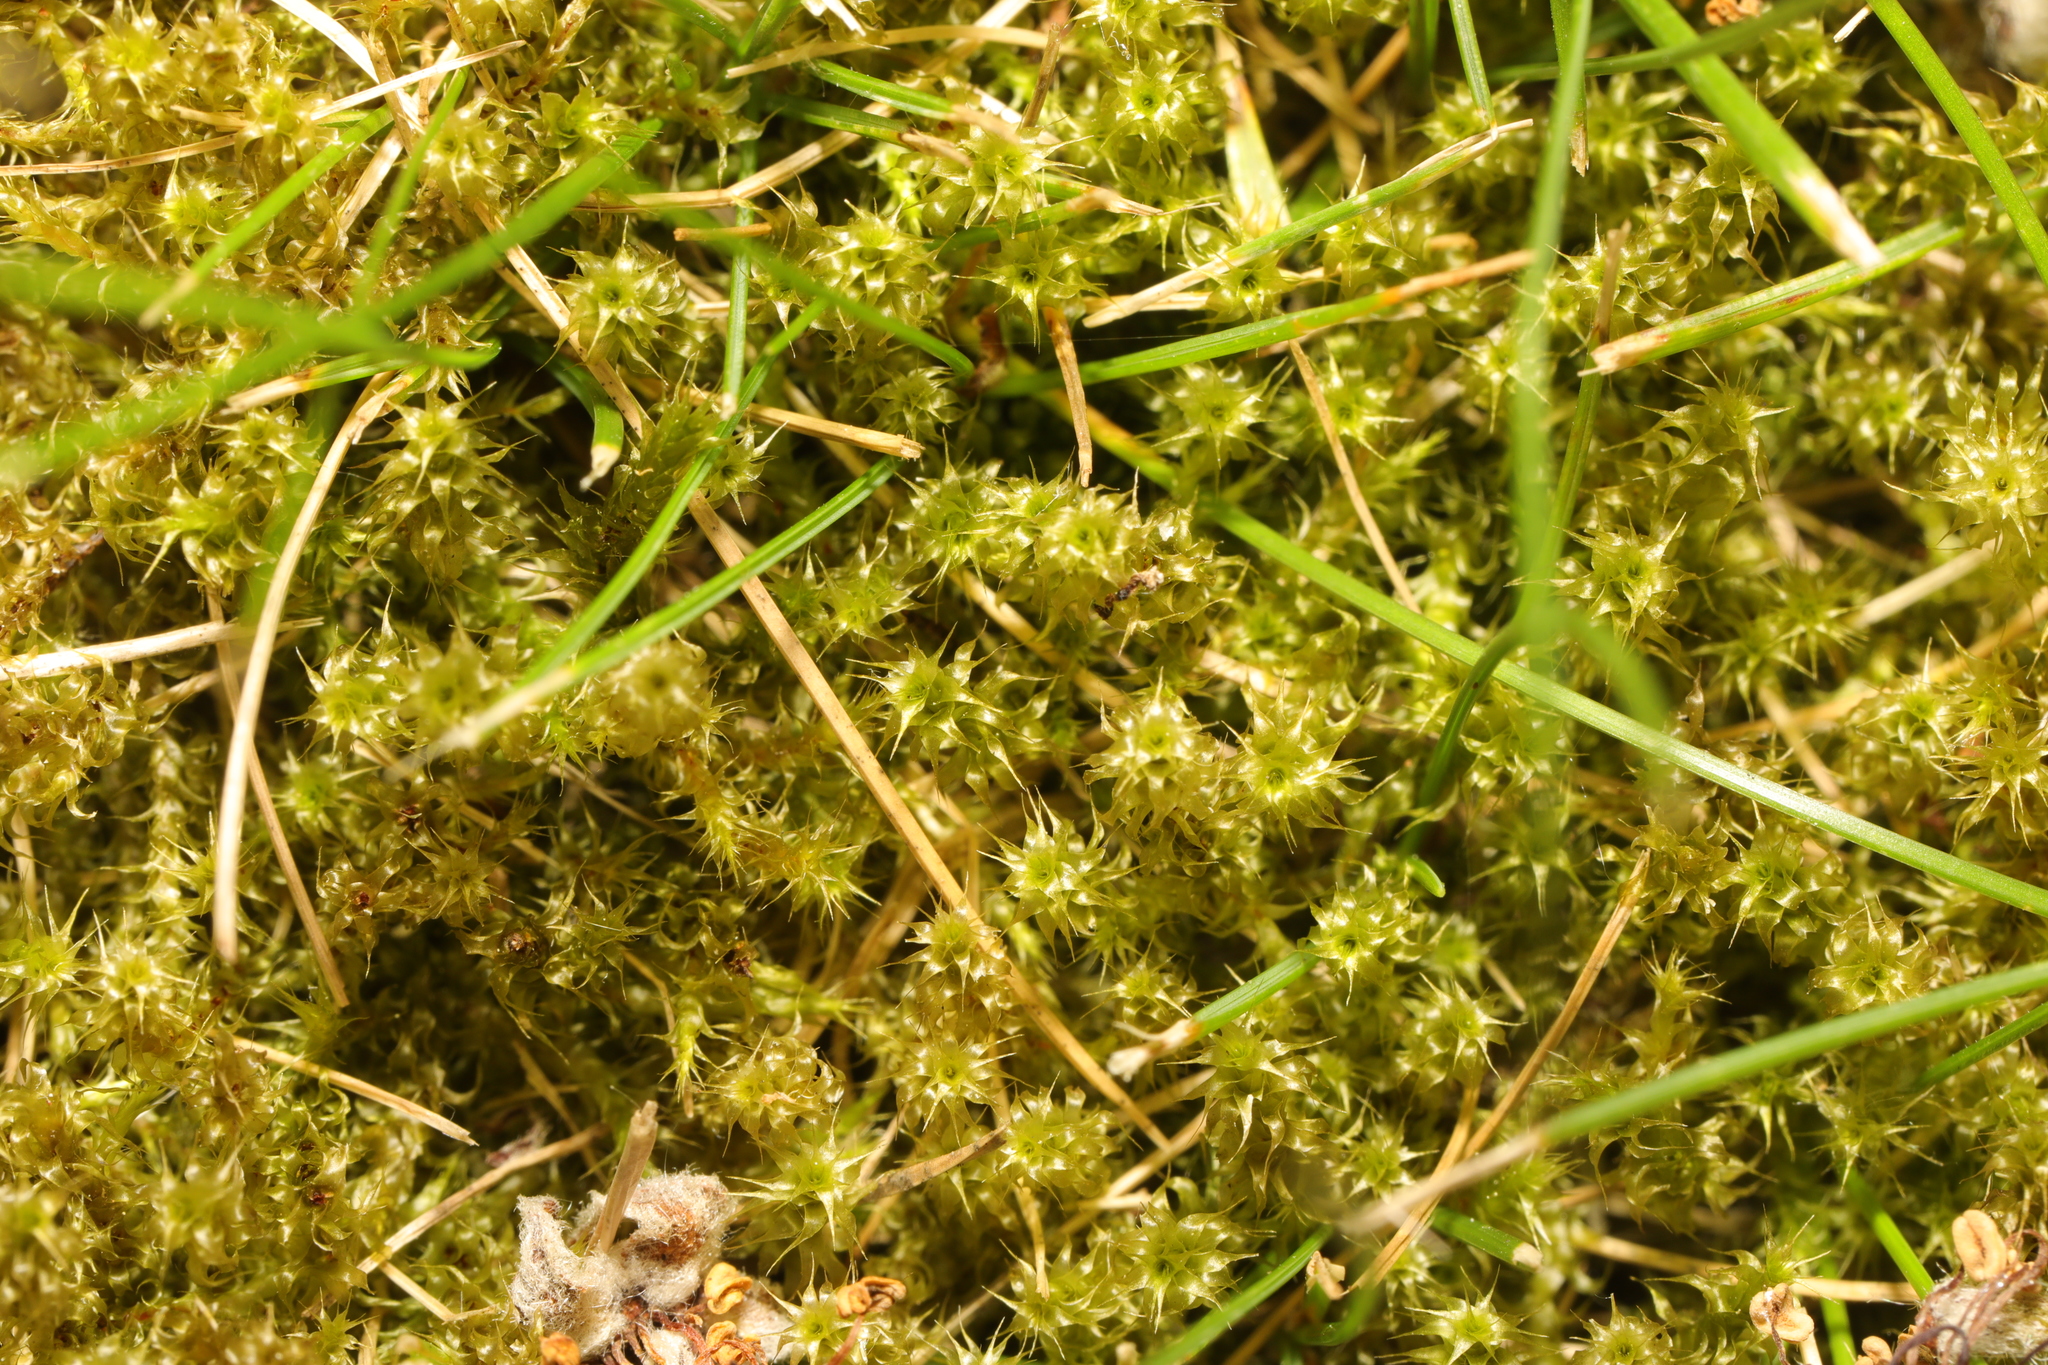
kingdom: Plantae
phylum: Bryophyta
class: Bryopsida
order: Hypnales
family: Hylocomiaceae
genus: Rhytidiadelphus
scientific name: Rhytidiadelphus squarrosus
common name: Springy turf-moss
